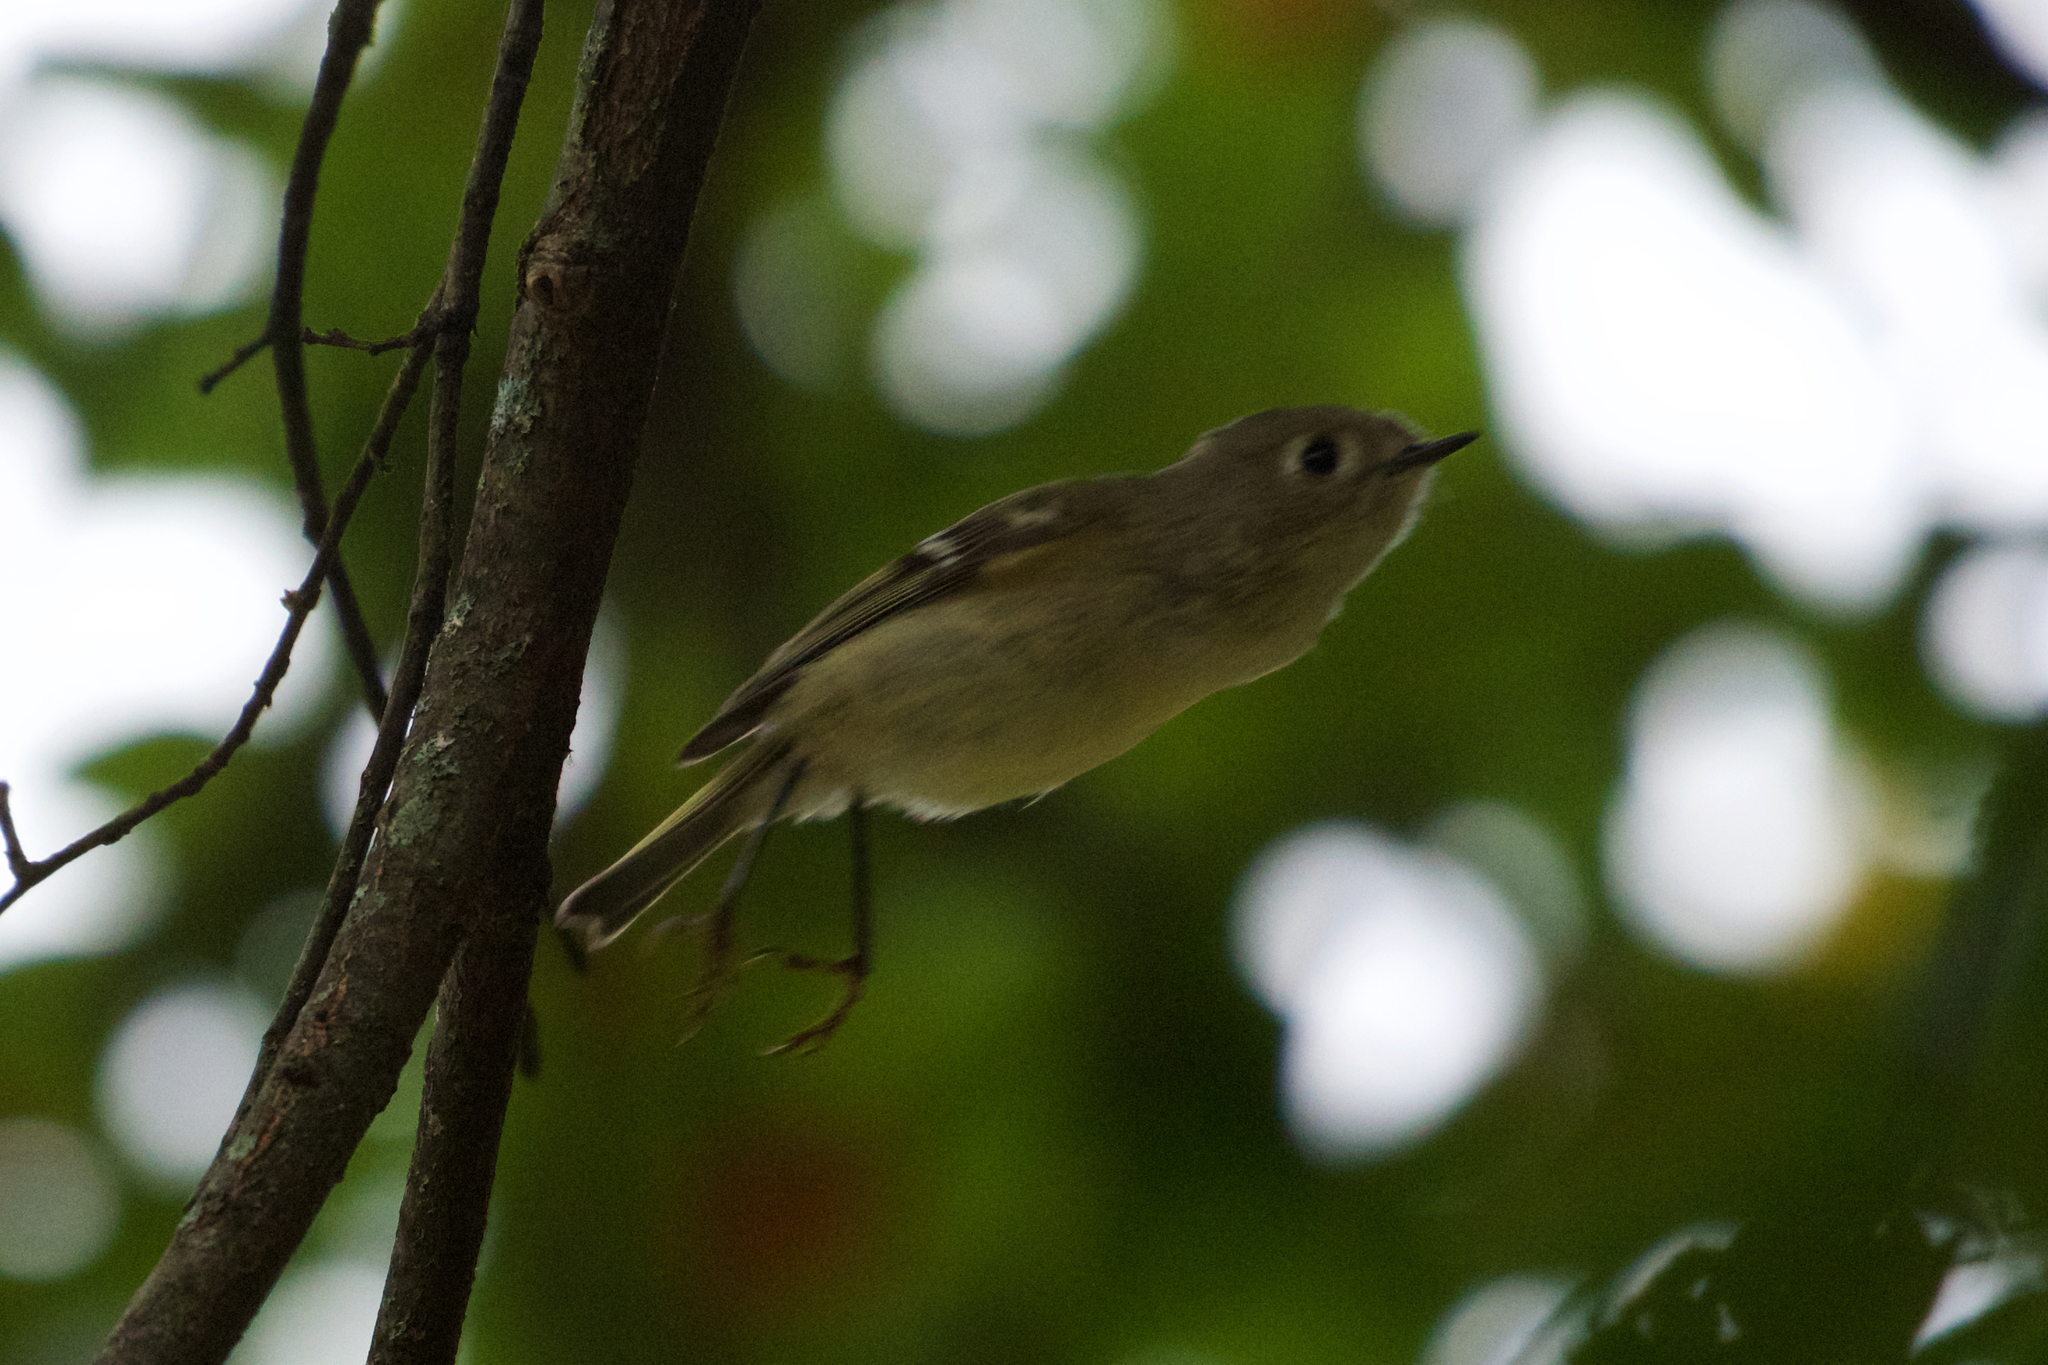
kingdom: Animalia
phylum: Chordata
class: Aves
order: Passeriformes
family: Regulidae
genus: Regulus
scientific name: Regulus calendula
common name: Ruby-crowned kinglet
